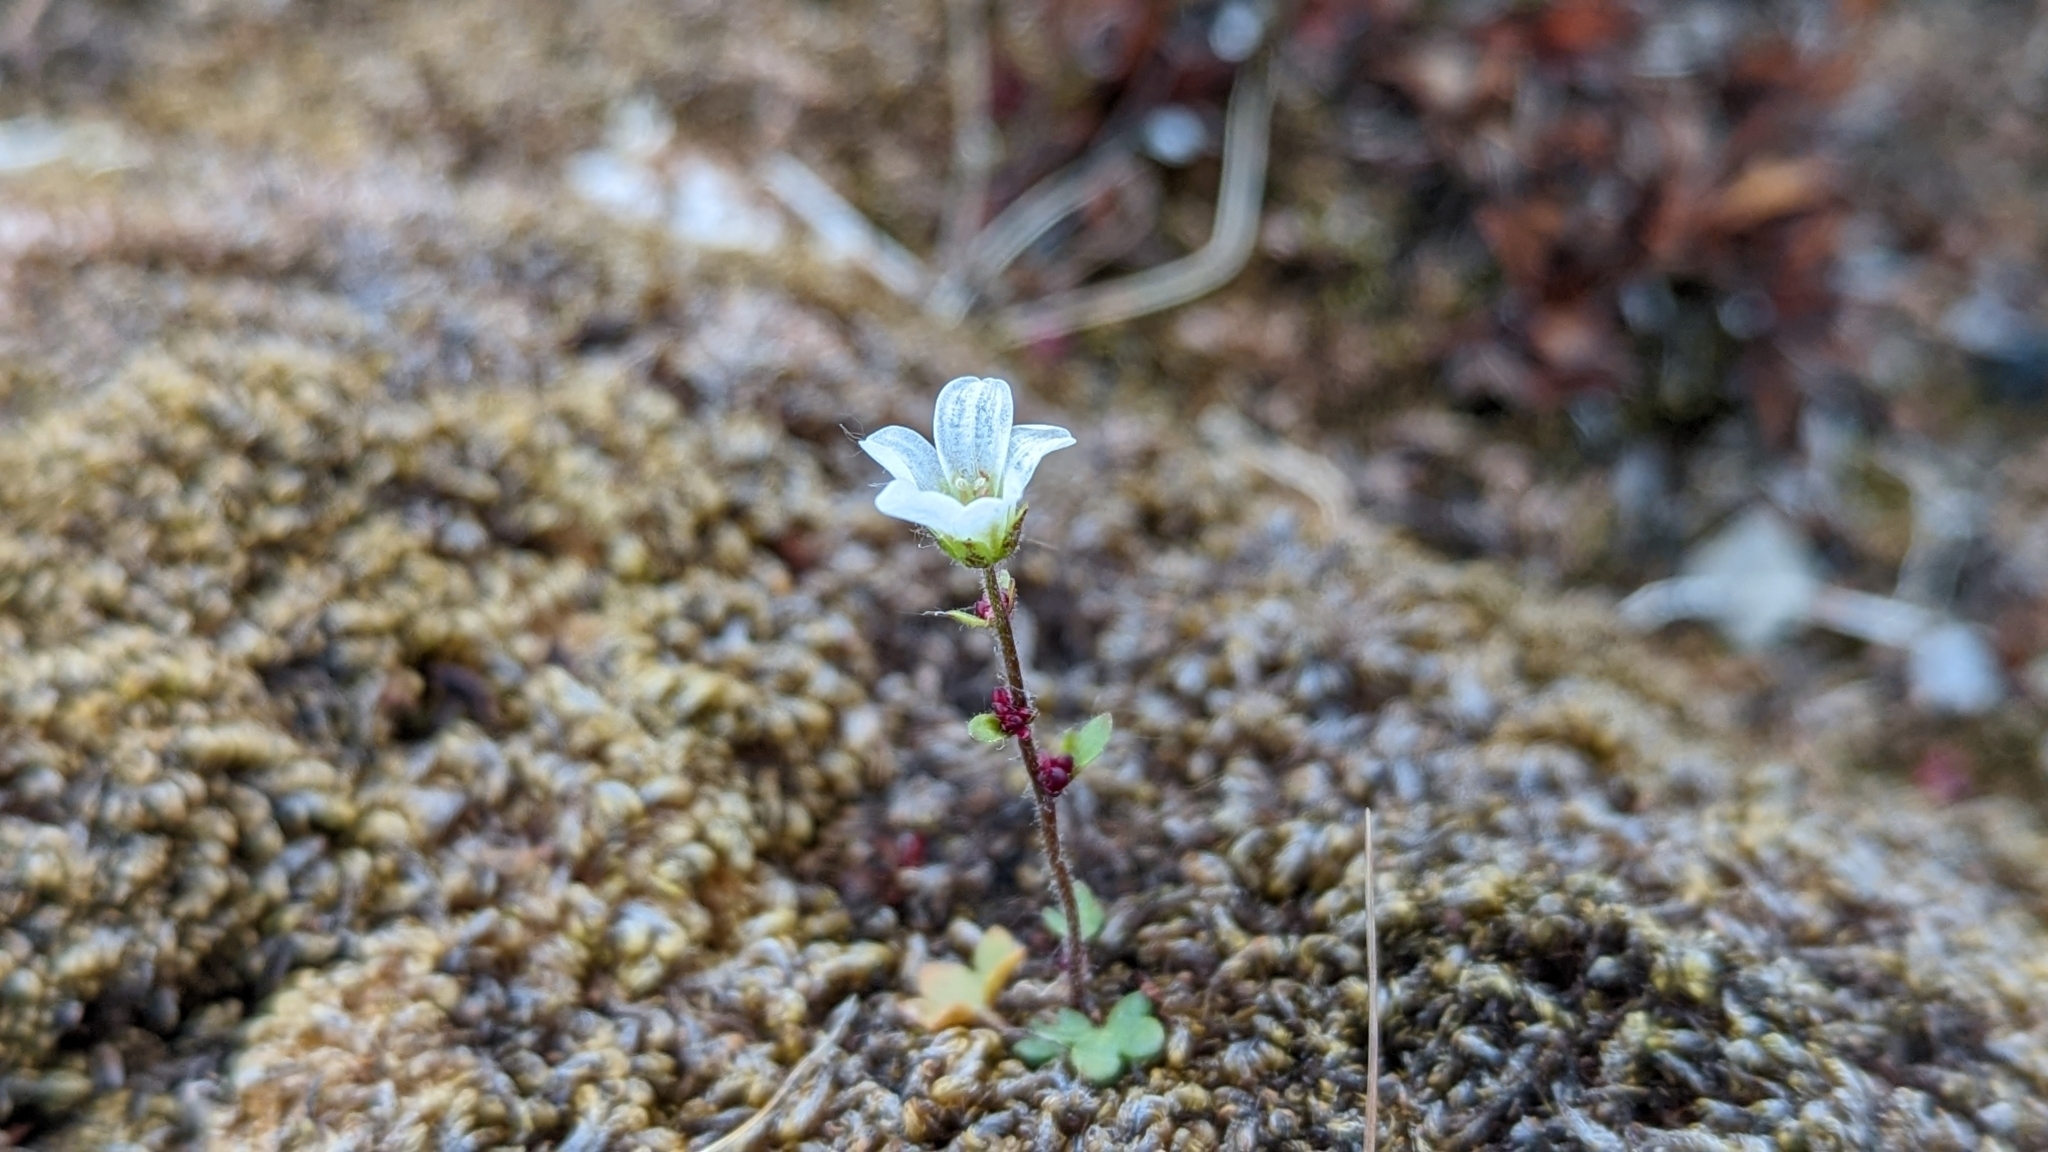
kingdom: Plantae
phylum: Tracheophyta
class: Magnoliopsida
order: Saxifragales
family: Saxifragaceae
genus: Saxifraga
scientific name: Saxifraga cernua
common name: Drooping saxifrage
